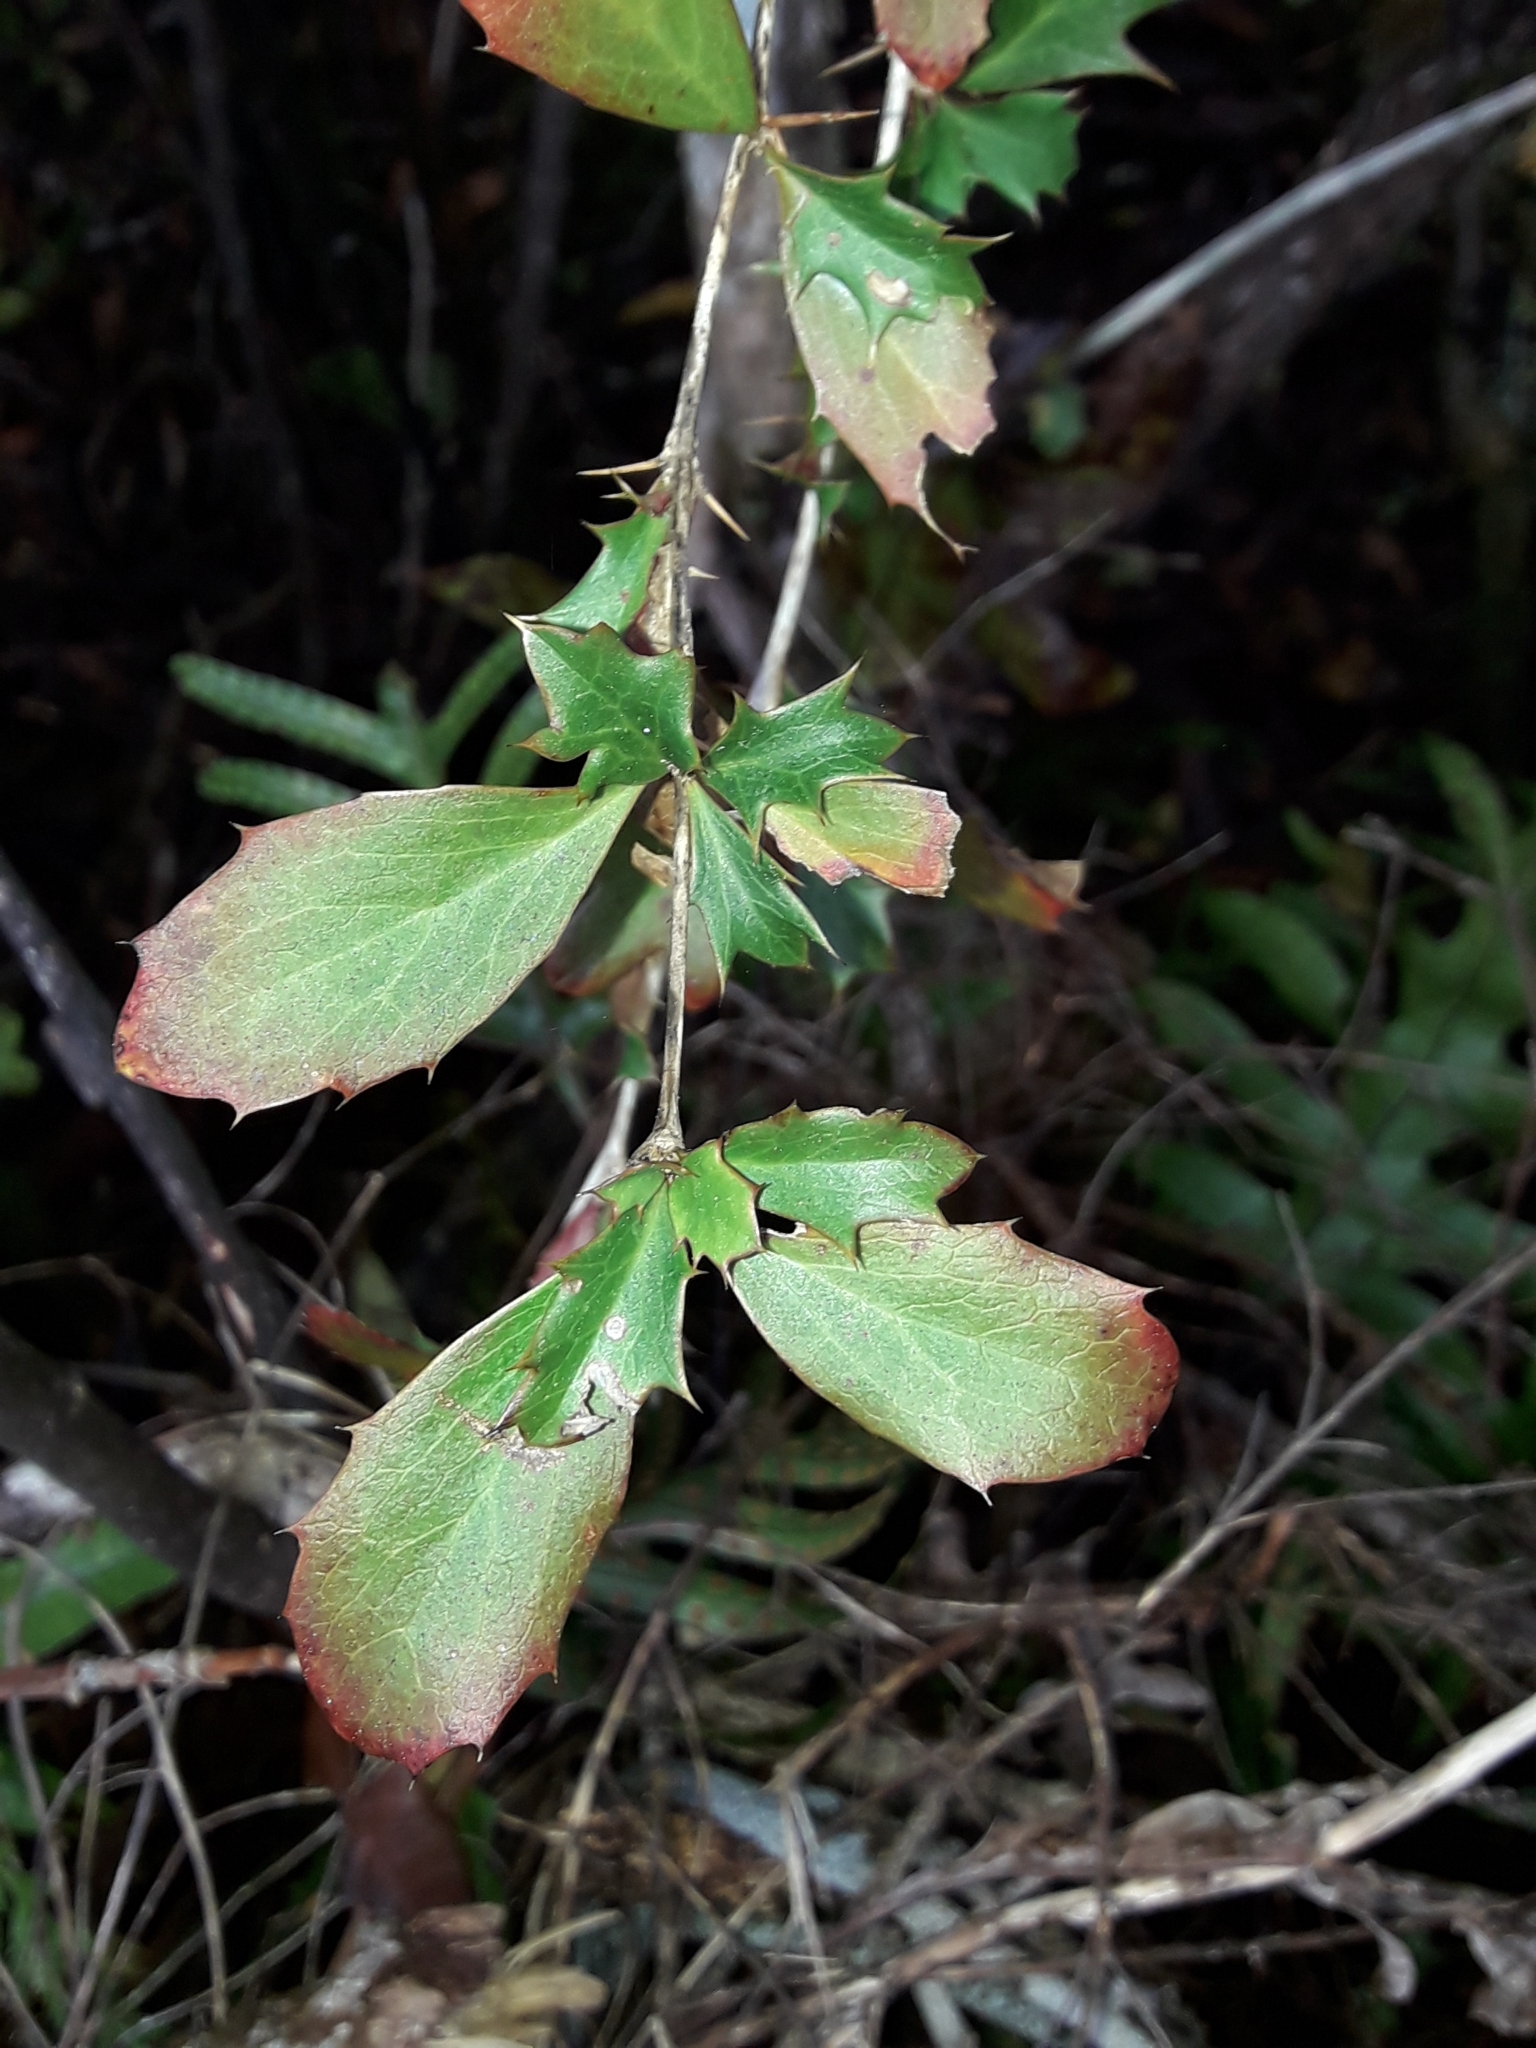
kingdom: Plantae
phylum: Tracheophyta
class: Magnoliopsida
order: Ranunculales
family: Berberidaceae
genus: Berberis
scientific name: Berberis glaucocarpa
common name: Great barberry
